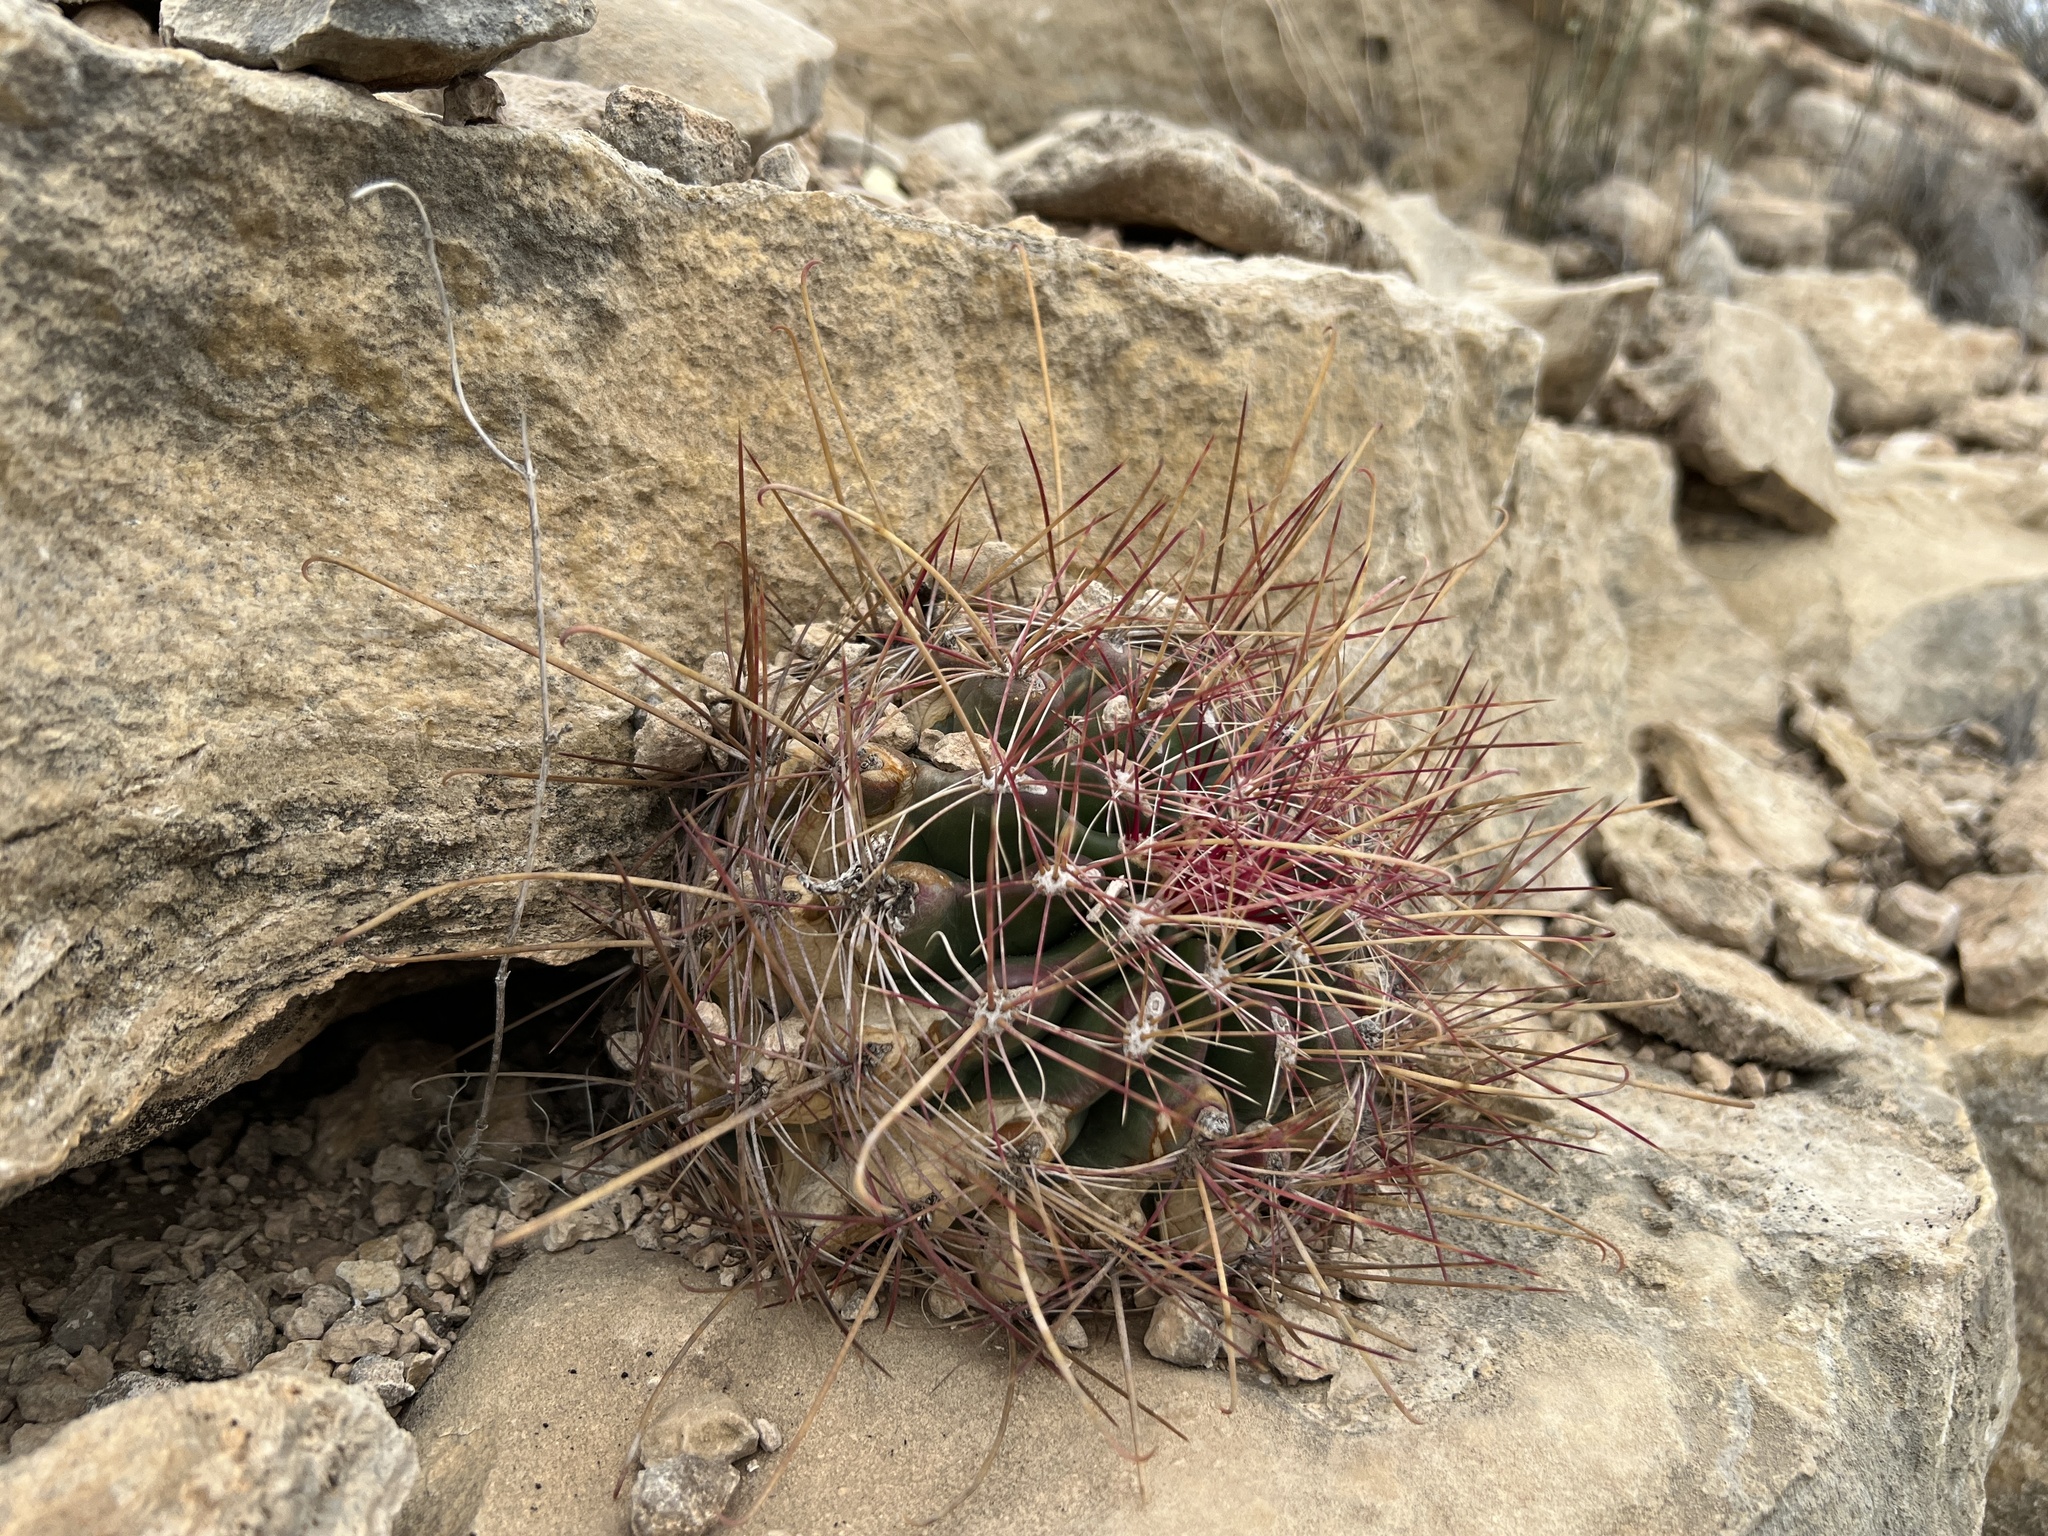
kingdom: Plantae
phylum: Tracheophyta
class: Magnoliopsida
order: Caryophyllales
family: Cactaceae
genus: Bisnaga
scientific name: Bisnaga hamatacantha
